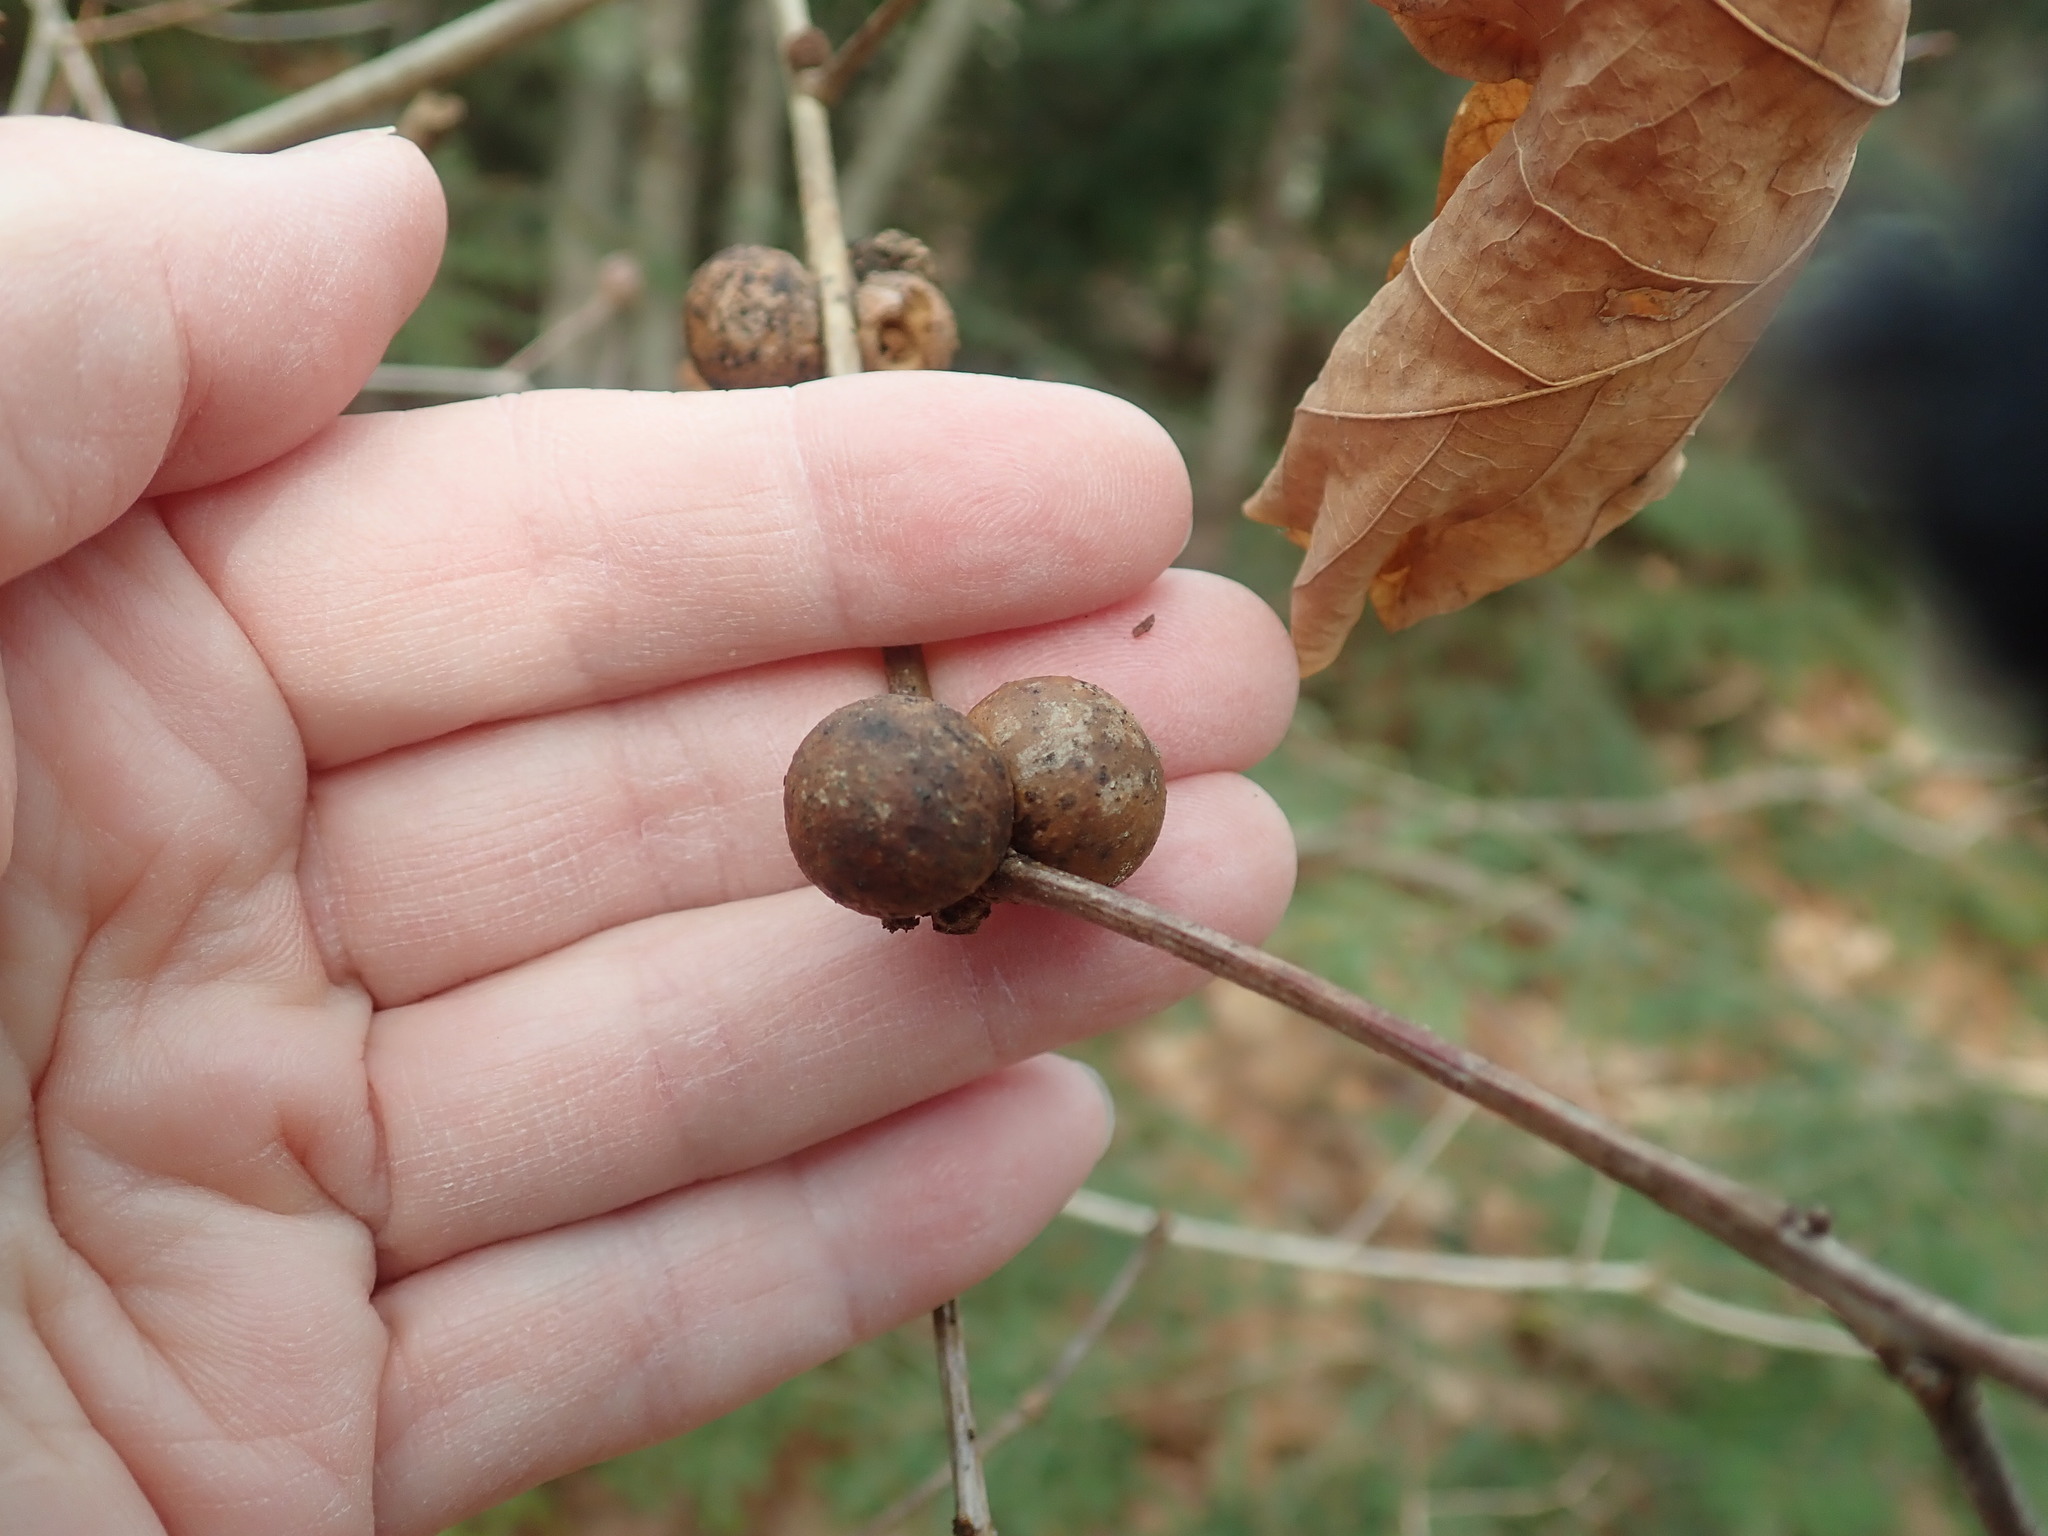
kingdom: Animalia
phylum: Arthropoda
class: Insecta
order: Hymenoptera
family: Cynipidae
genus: Disholcaspis
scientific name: Disholcaspis quercusglobulus
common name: Round bullet gall wasp
